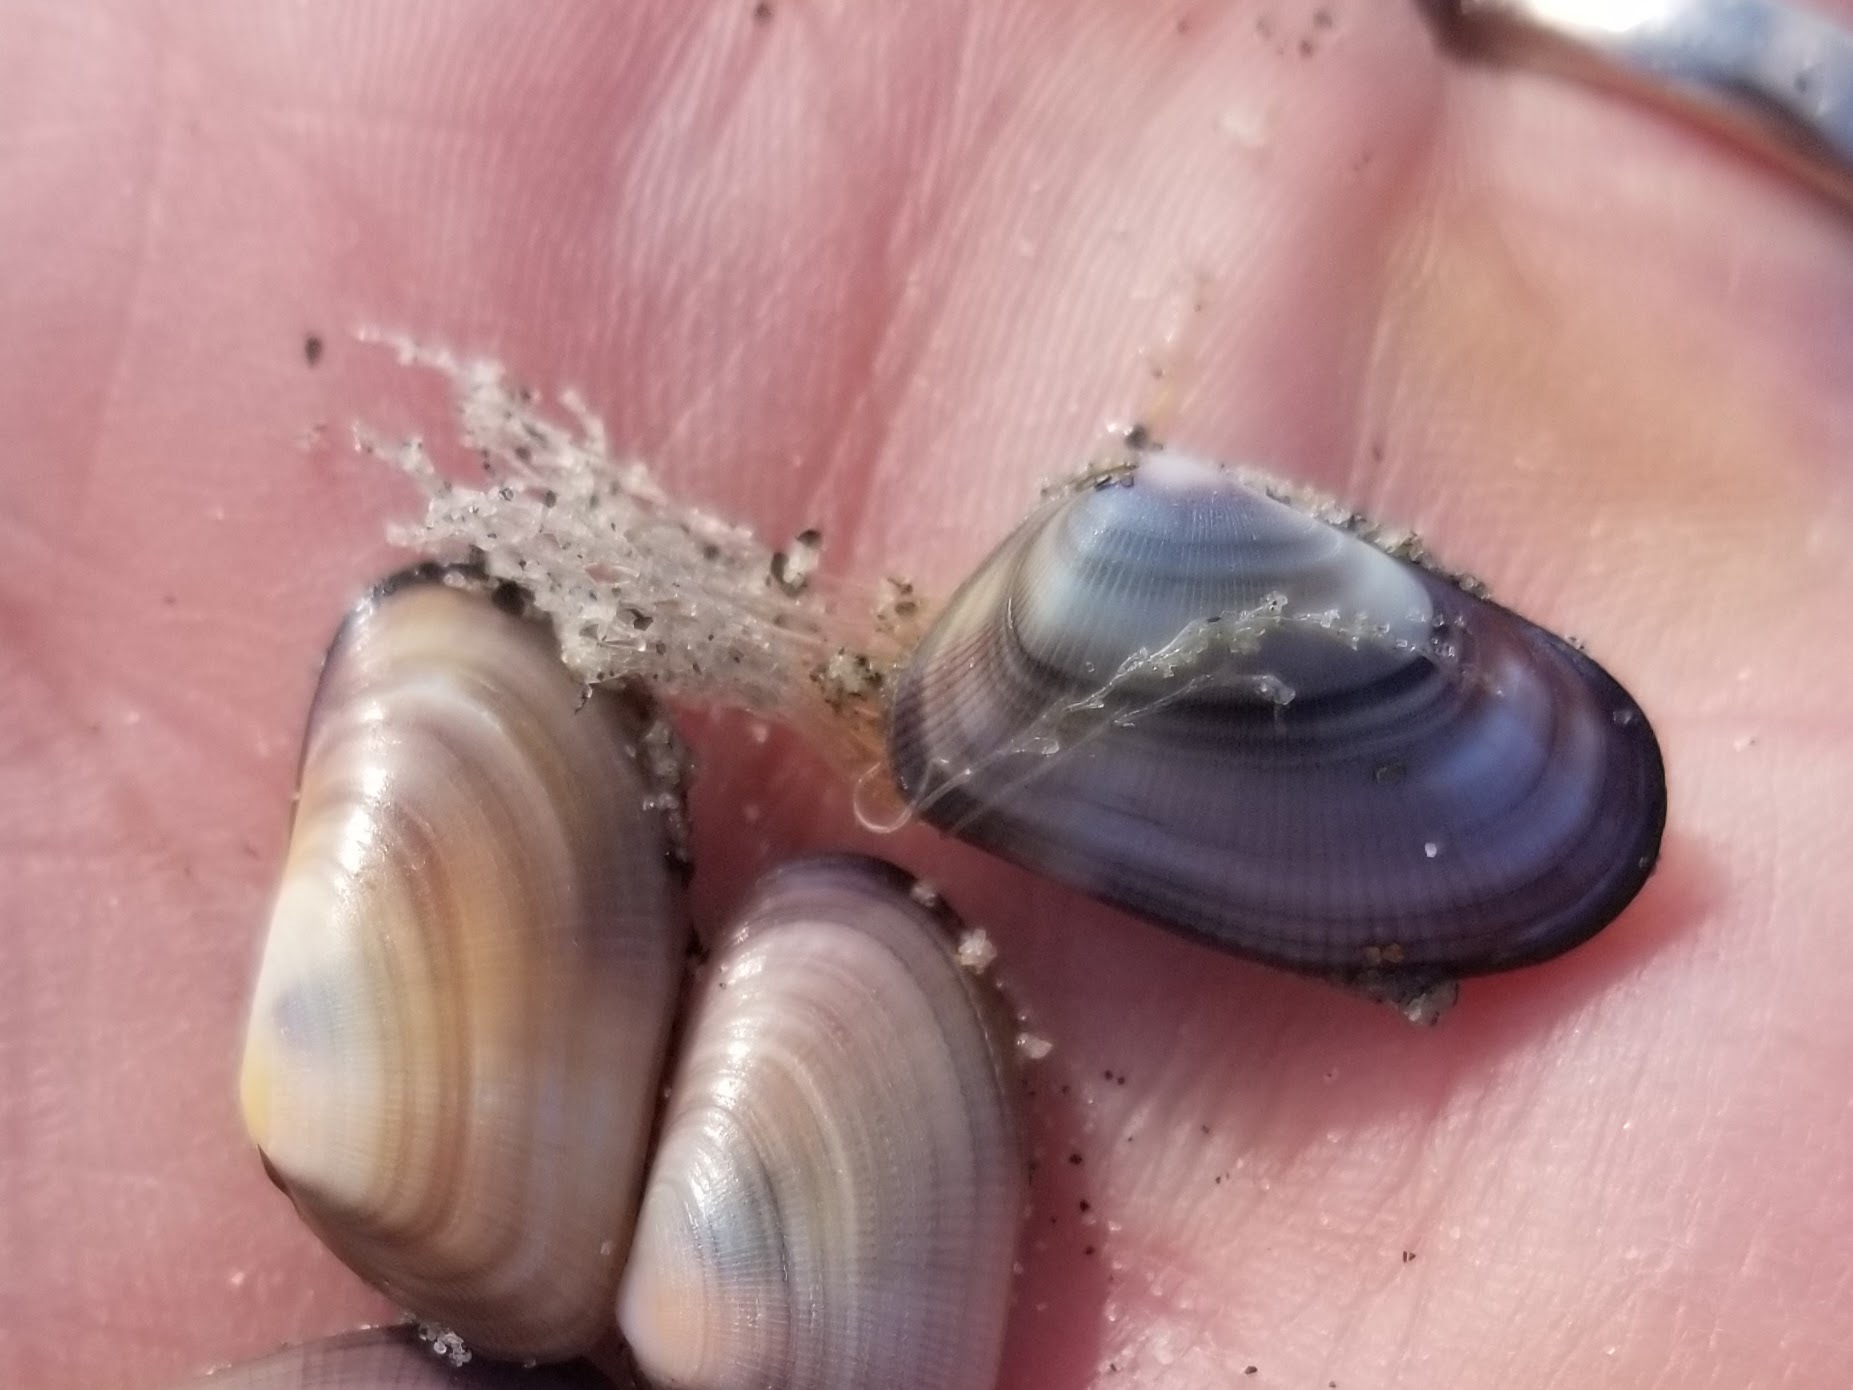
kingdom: Animalia
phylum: Cnidaria
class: Hydrozoa
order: Leptothecata
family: Lovenellidae
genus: Eucheilota
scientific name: Eucheilota bakeri
